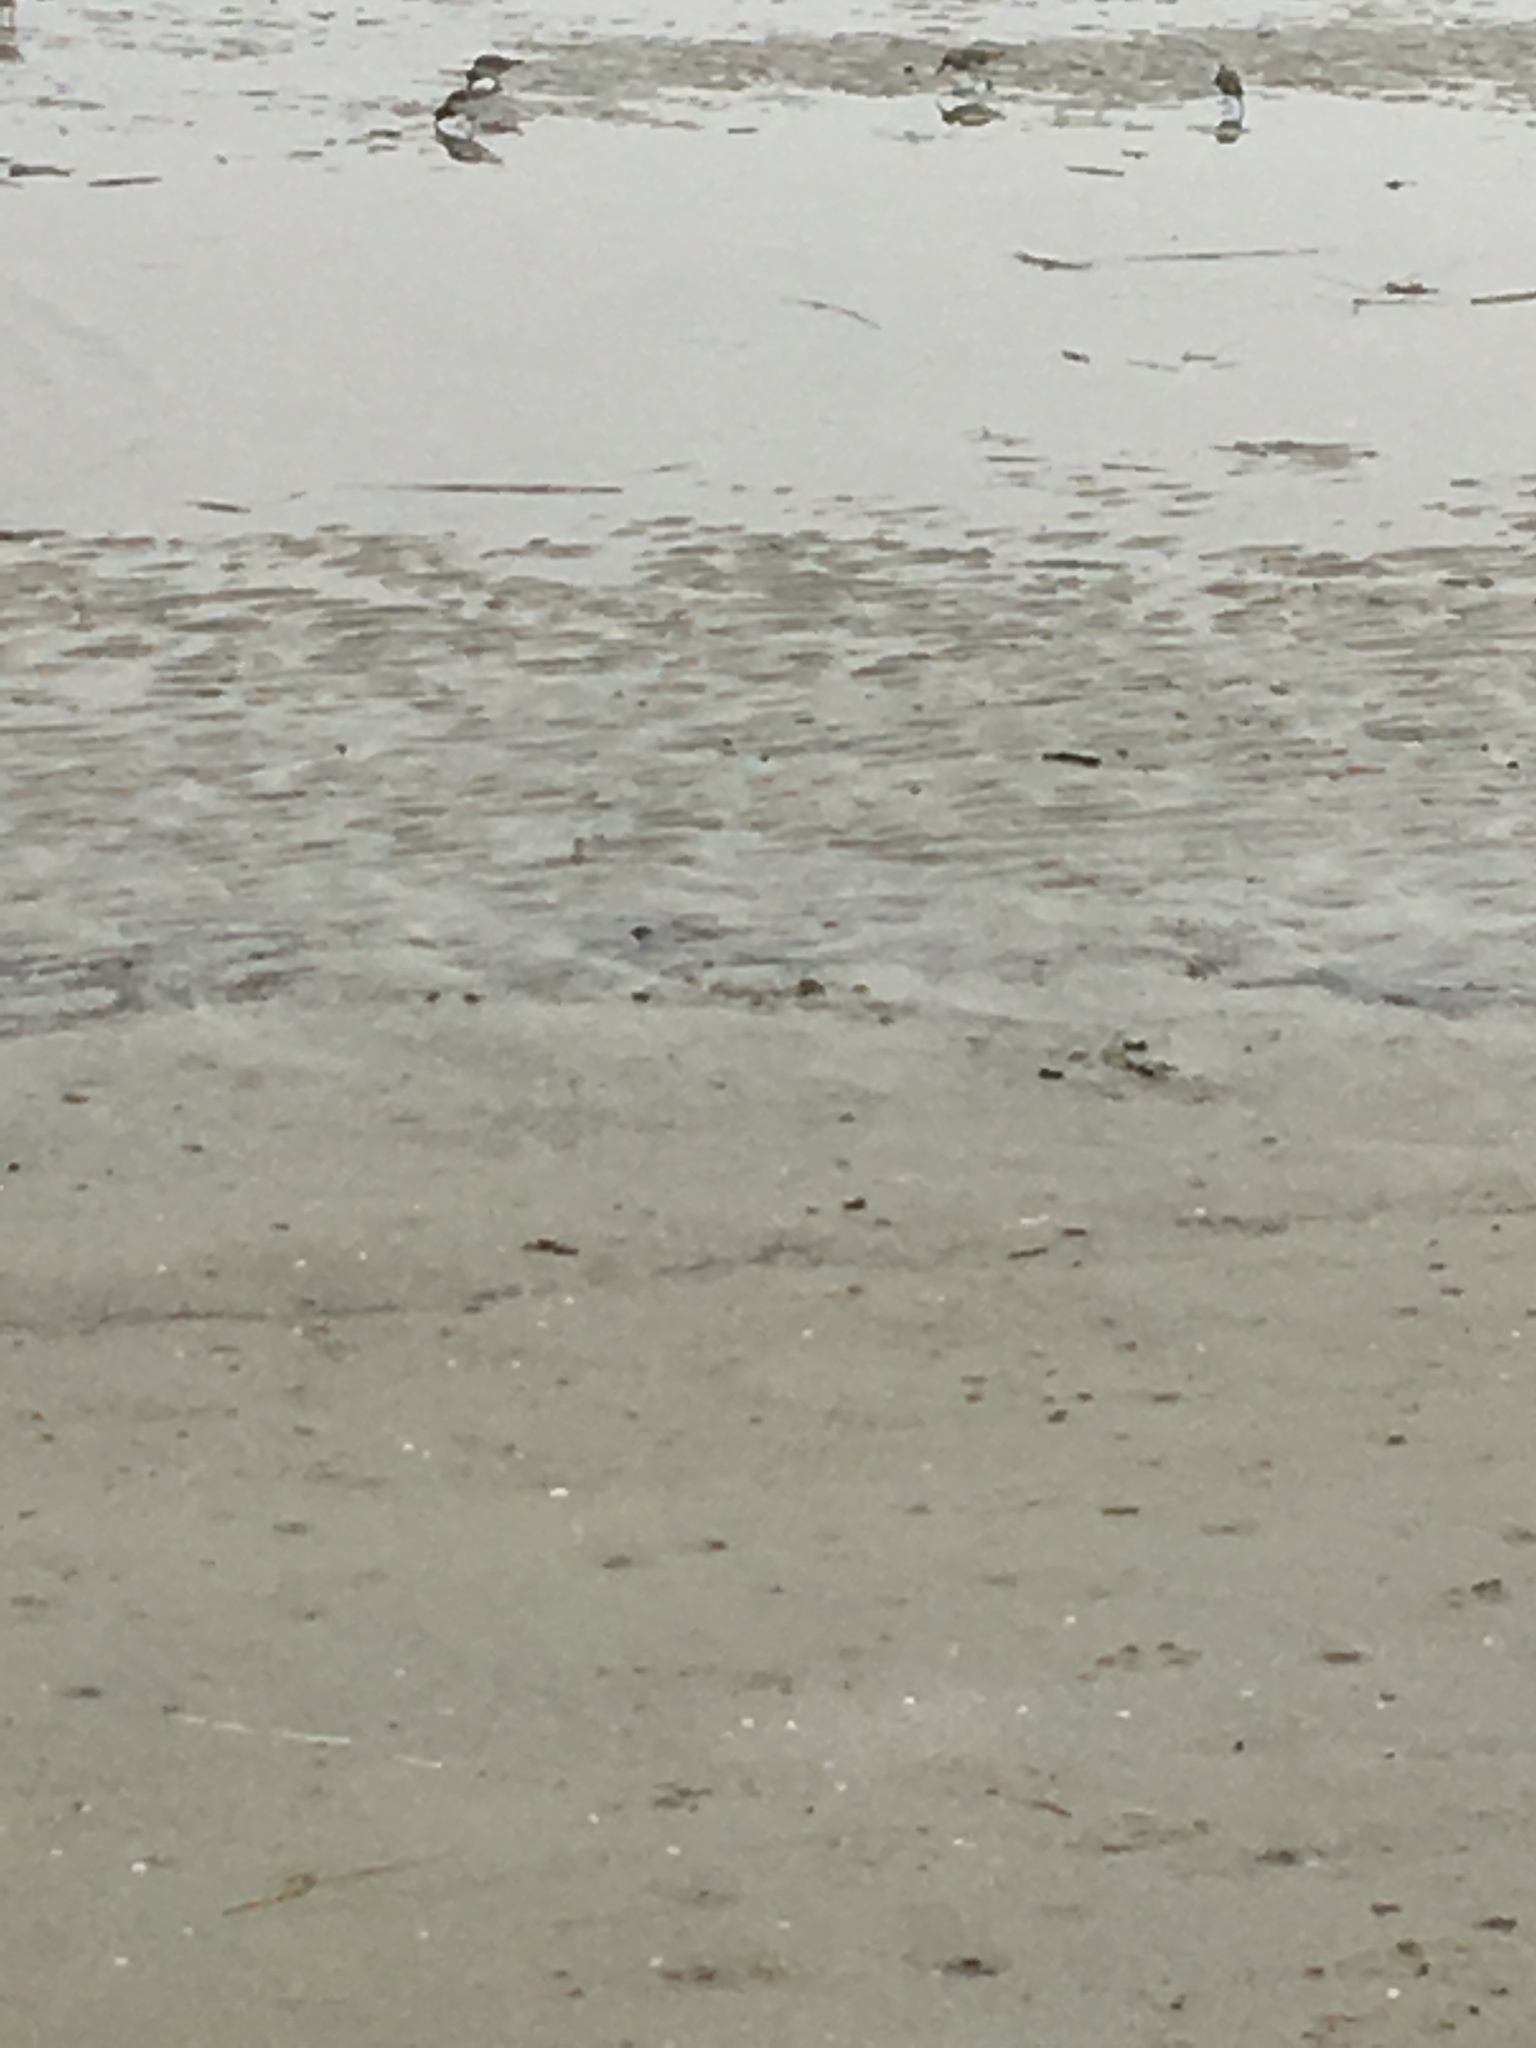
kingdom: Animalia
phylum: Chordata
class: Aves
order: Charadriiformes
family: Scolopacidae
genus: Calidris
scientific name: Calidris
